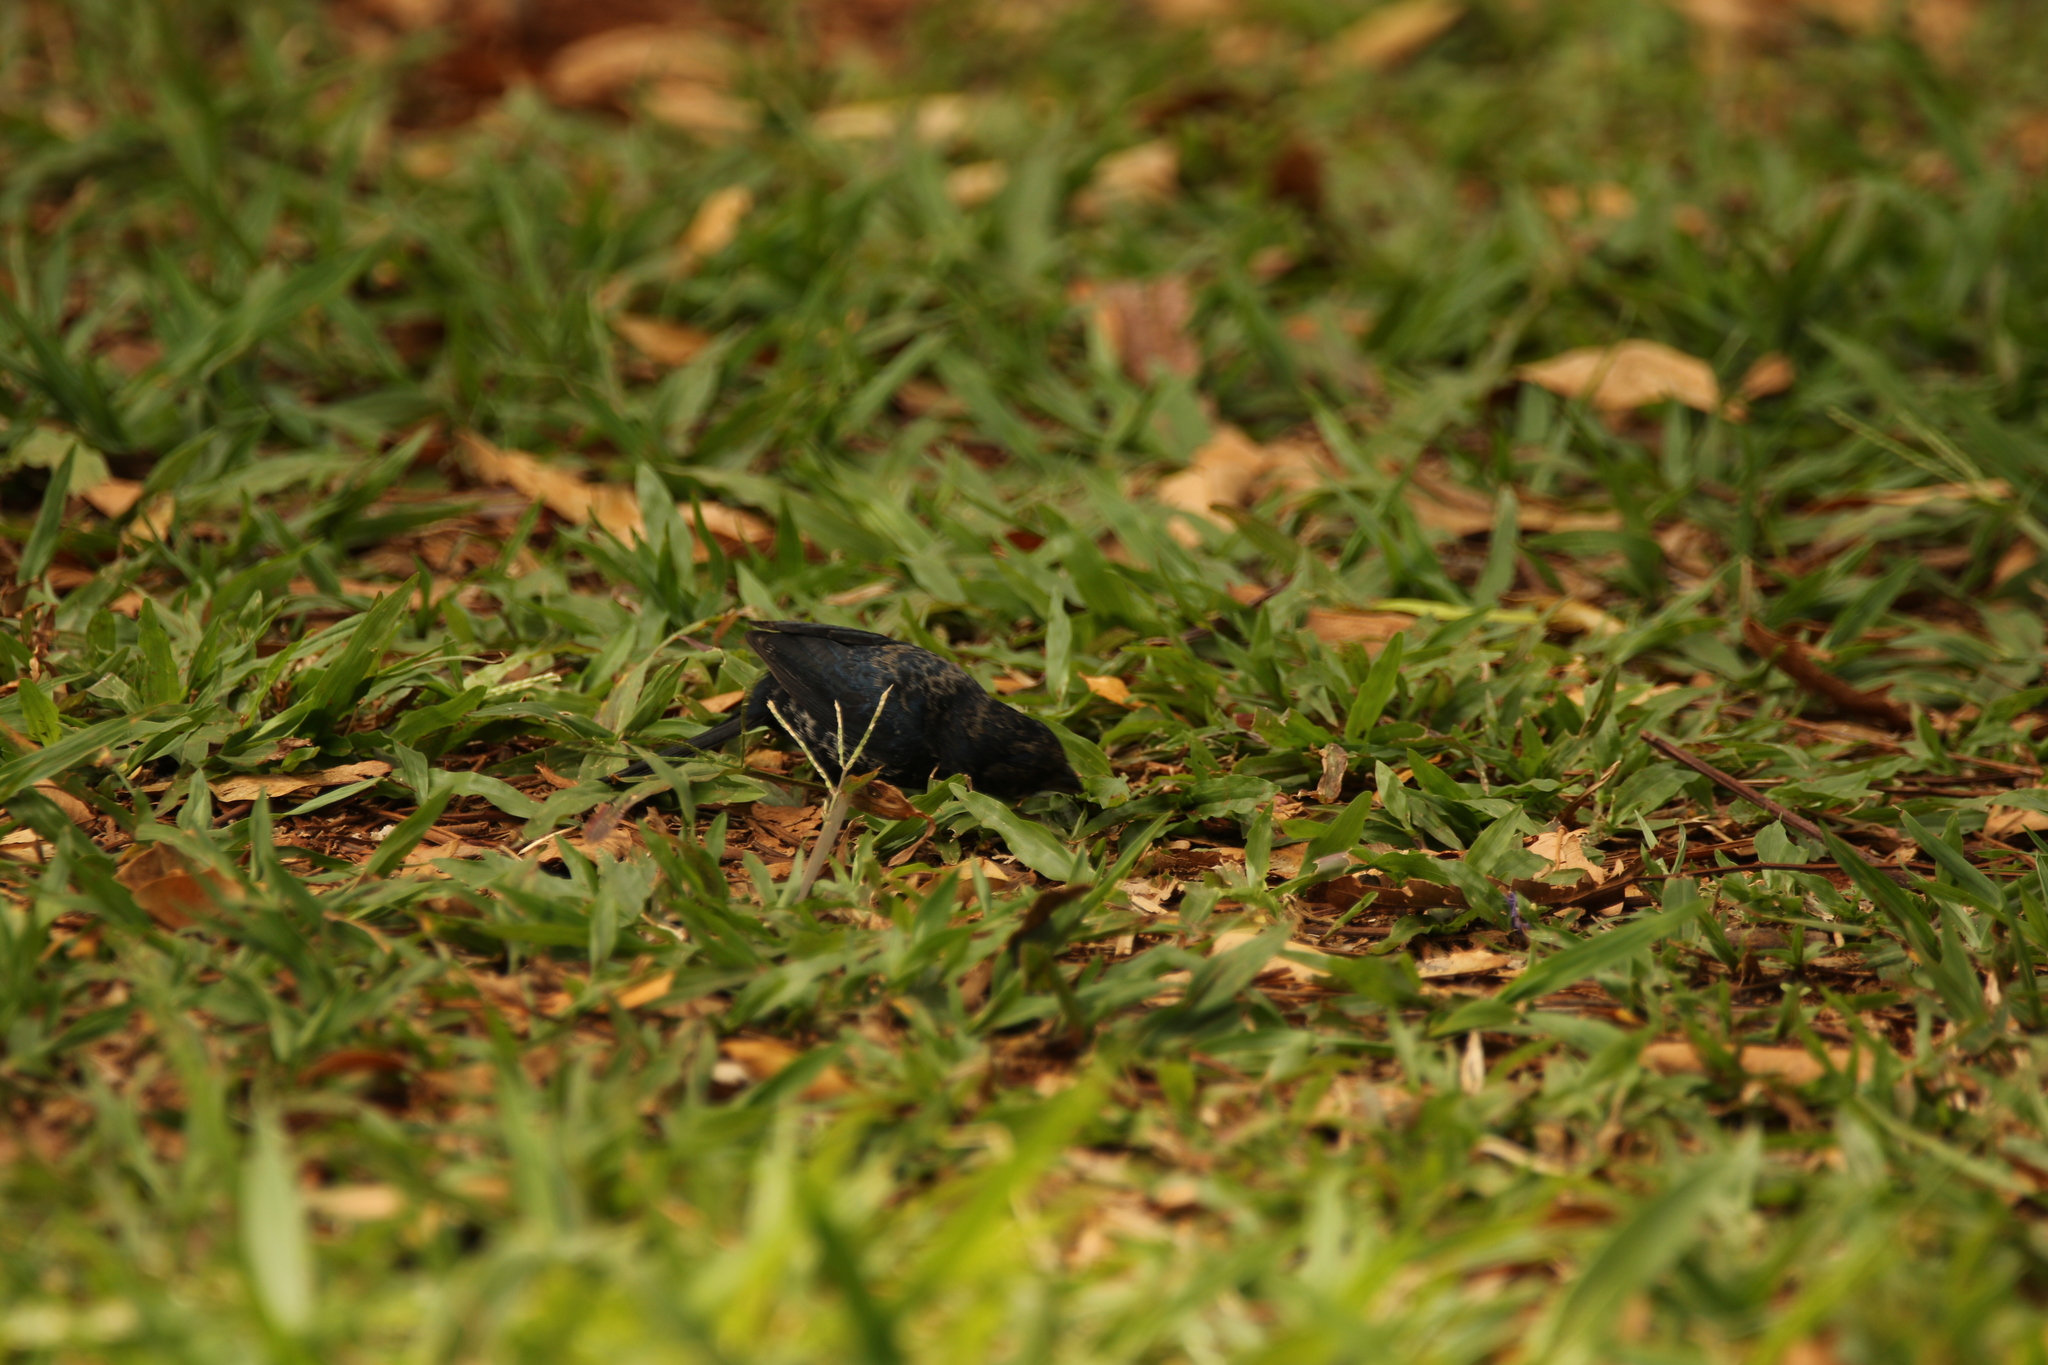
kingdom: Animalia
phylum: Chordata
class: Aves
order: Passeriformes
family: Thraupidae
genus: Volatinia
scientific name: Volatinia jacarina
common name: Blue-black grassquit
